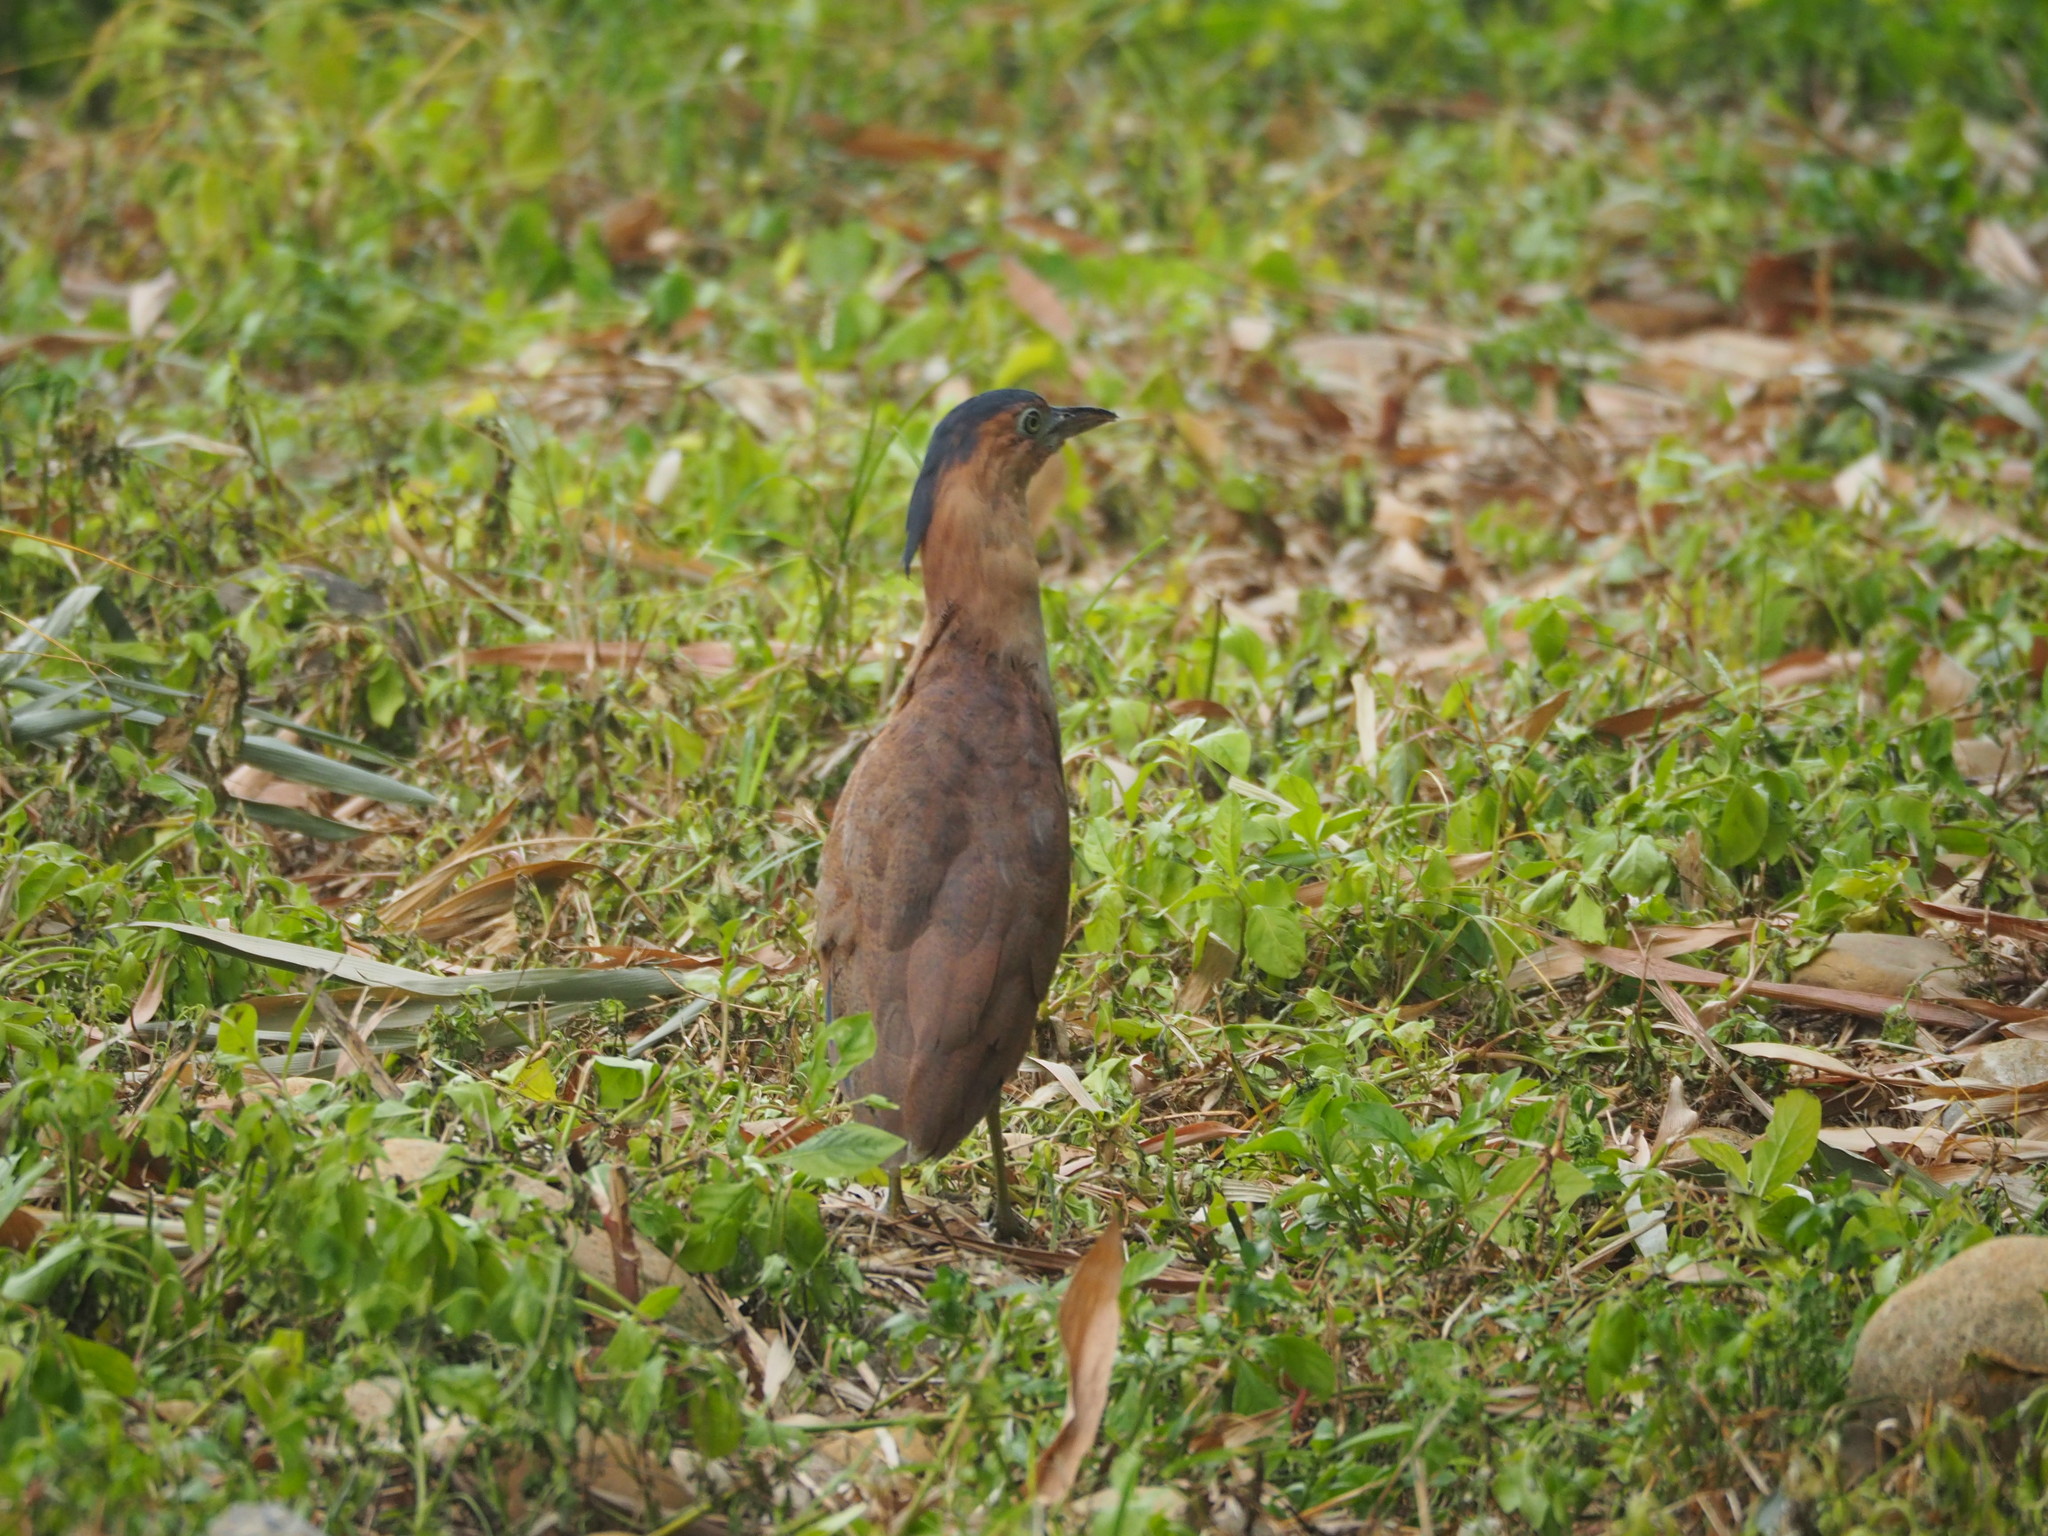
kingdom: Animalia
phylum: Chordata
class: Aves
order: Pelecaniformes
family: Ardeidae
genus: Gorsachius
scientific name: Gorsachius melanolophus
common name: Malayan night heron
